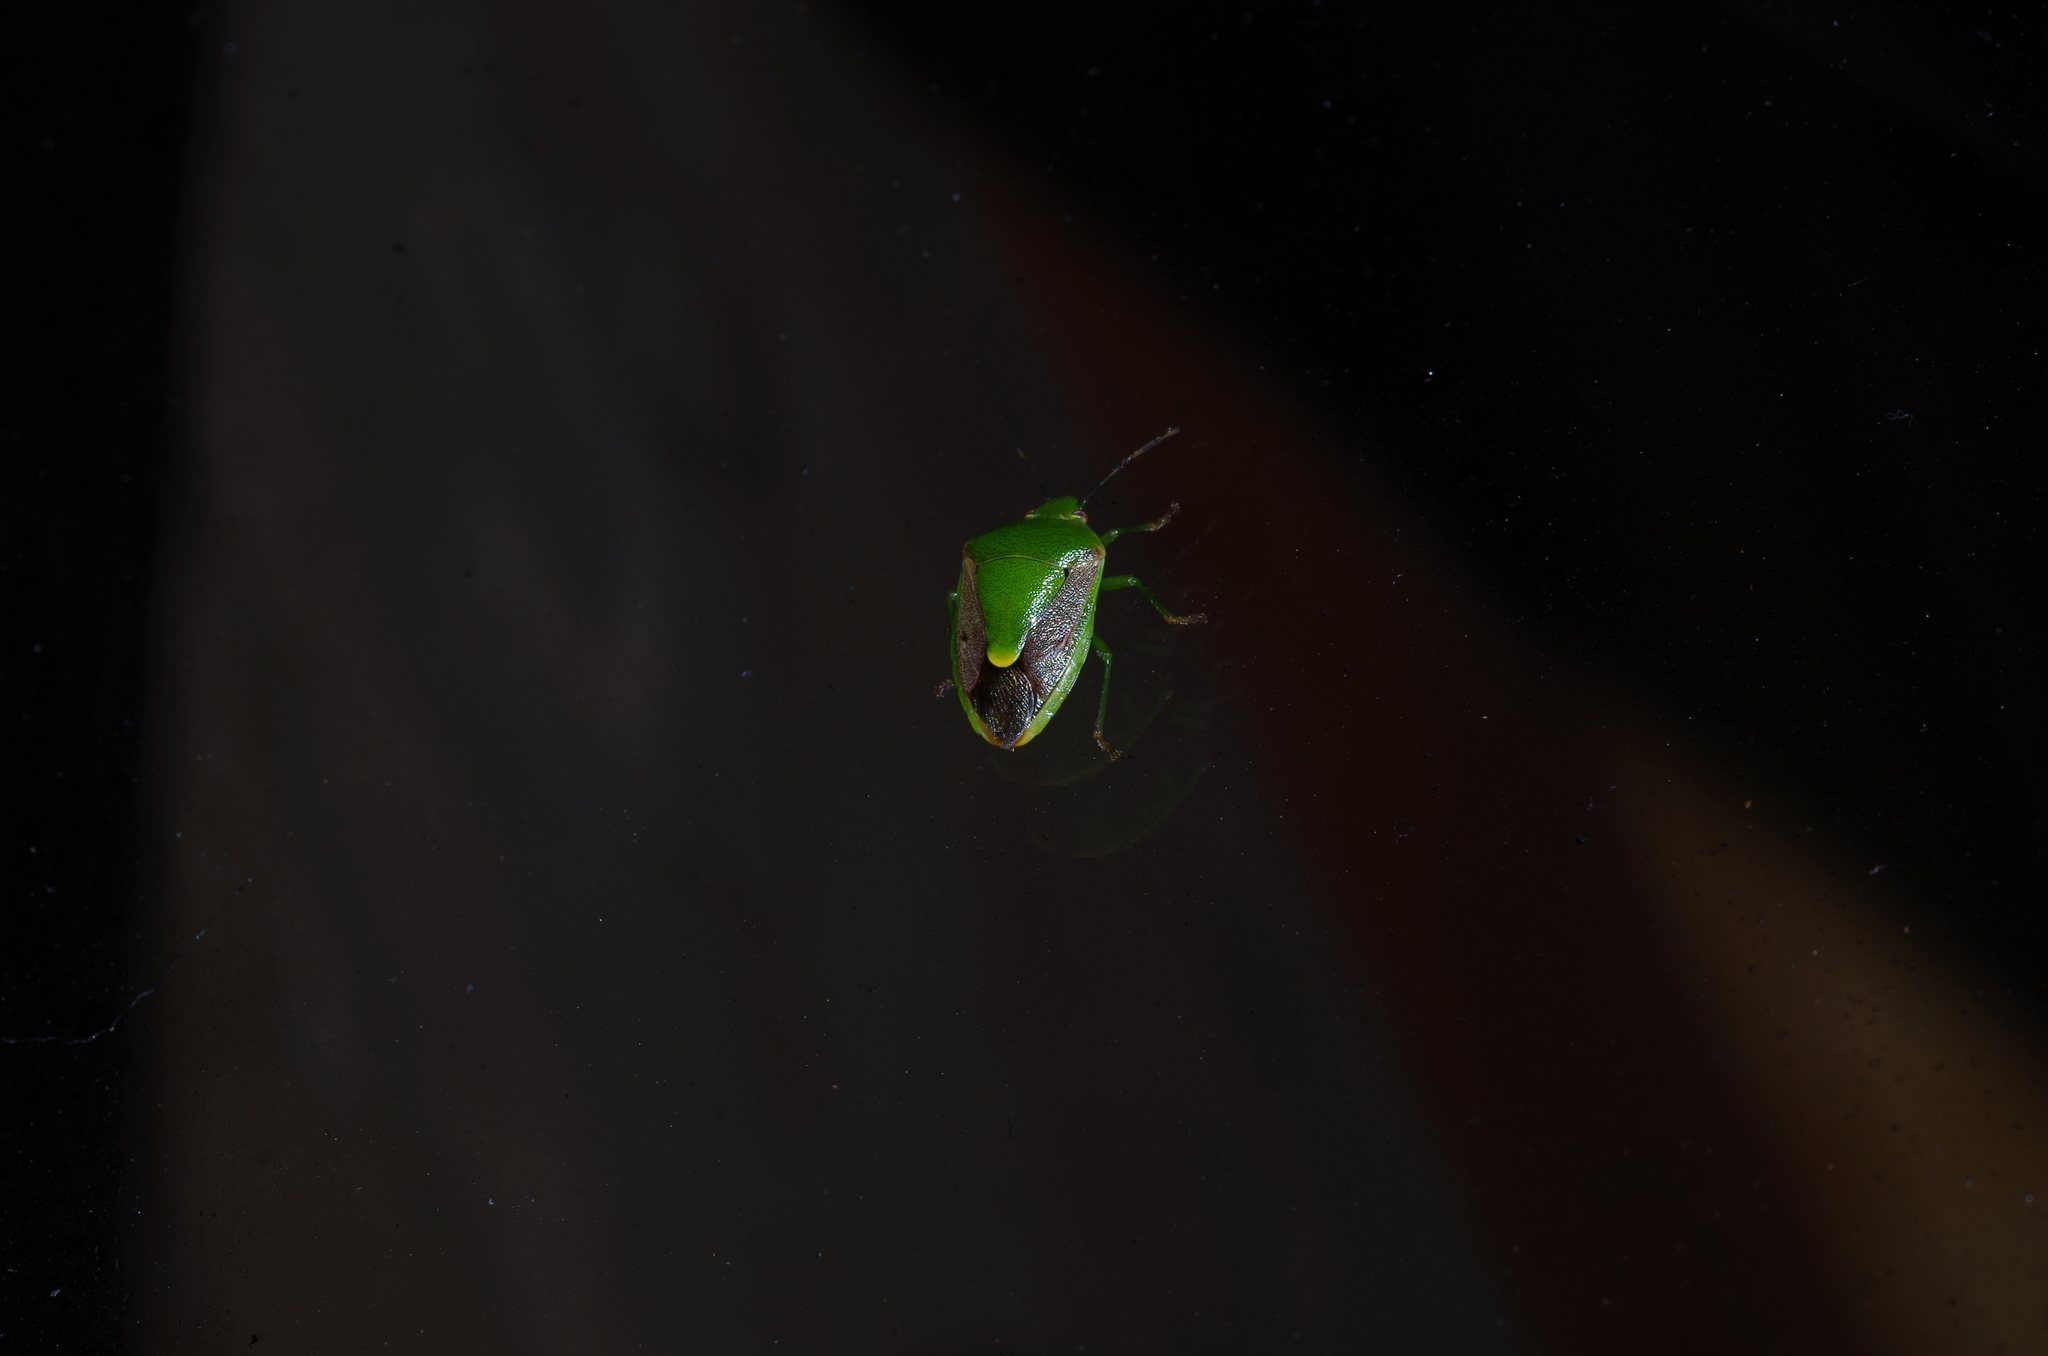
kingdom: Animalia
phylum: Arthropoda
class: Insecta
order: Hemiptera
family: Pentatomidae
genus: Plautia
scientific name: Plautia stali
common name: Stink bug
